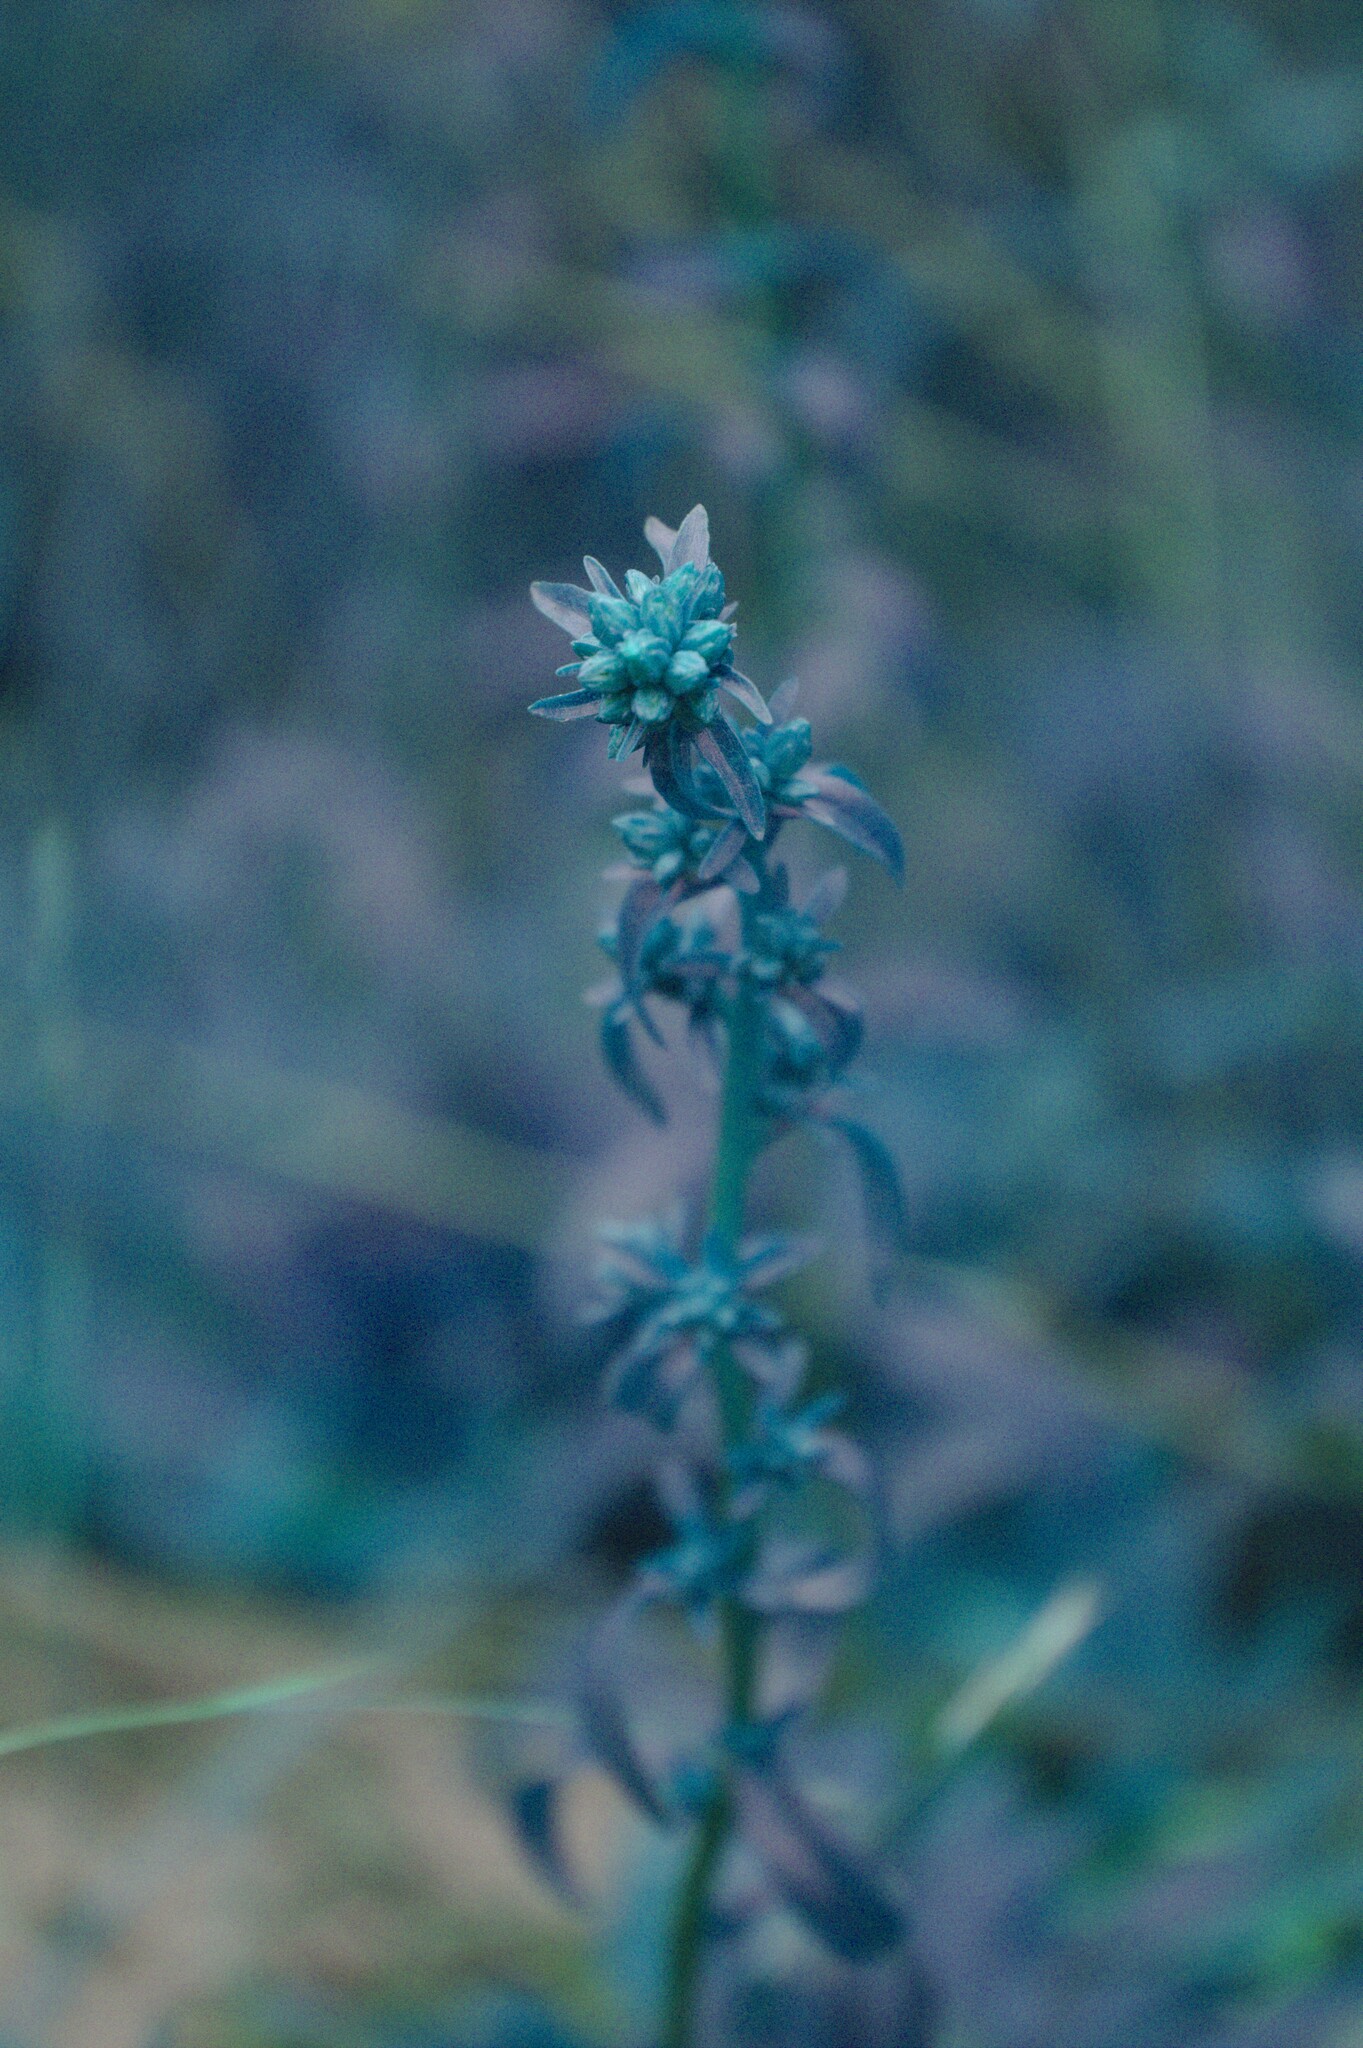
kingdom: Plantae
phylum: Tracheophyta
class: Magnoliopsida
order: Asterales
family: Asteraceae
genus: Solidago
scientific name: Solidago randii
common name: Rand's goldenrod
